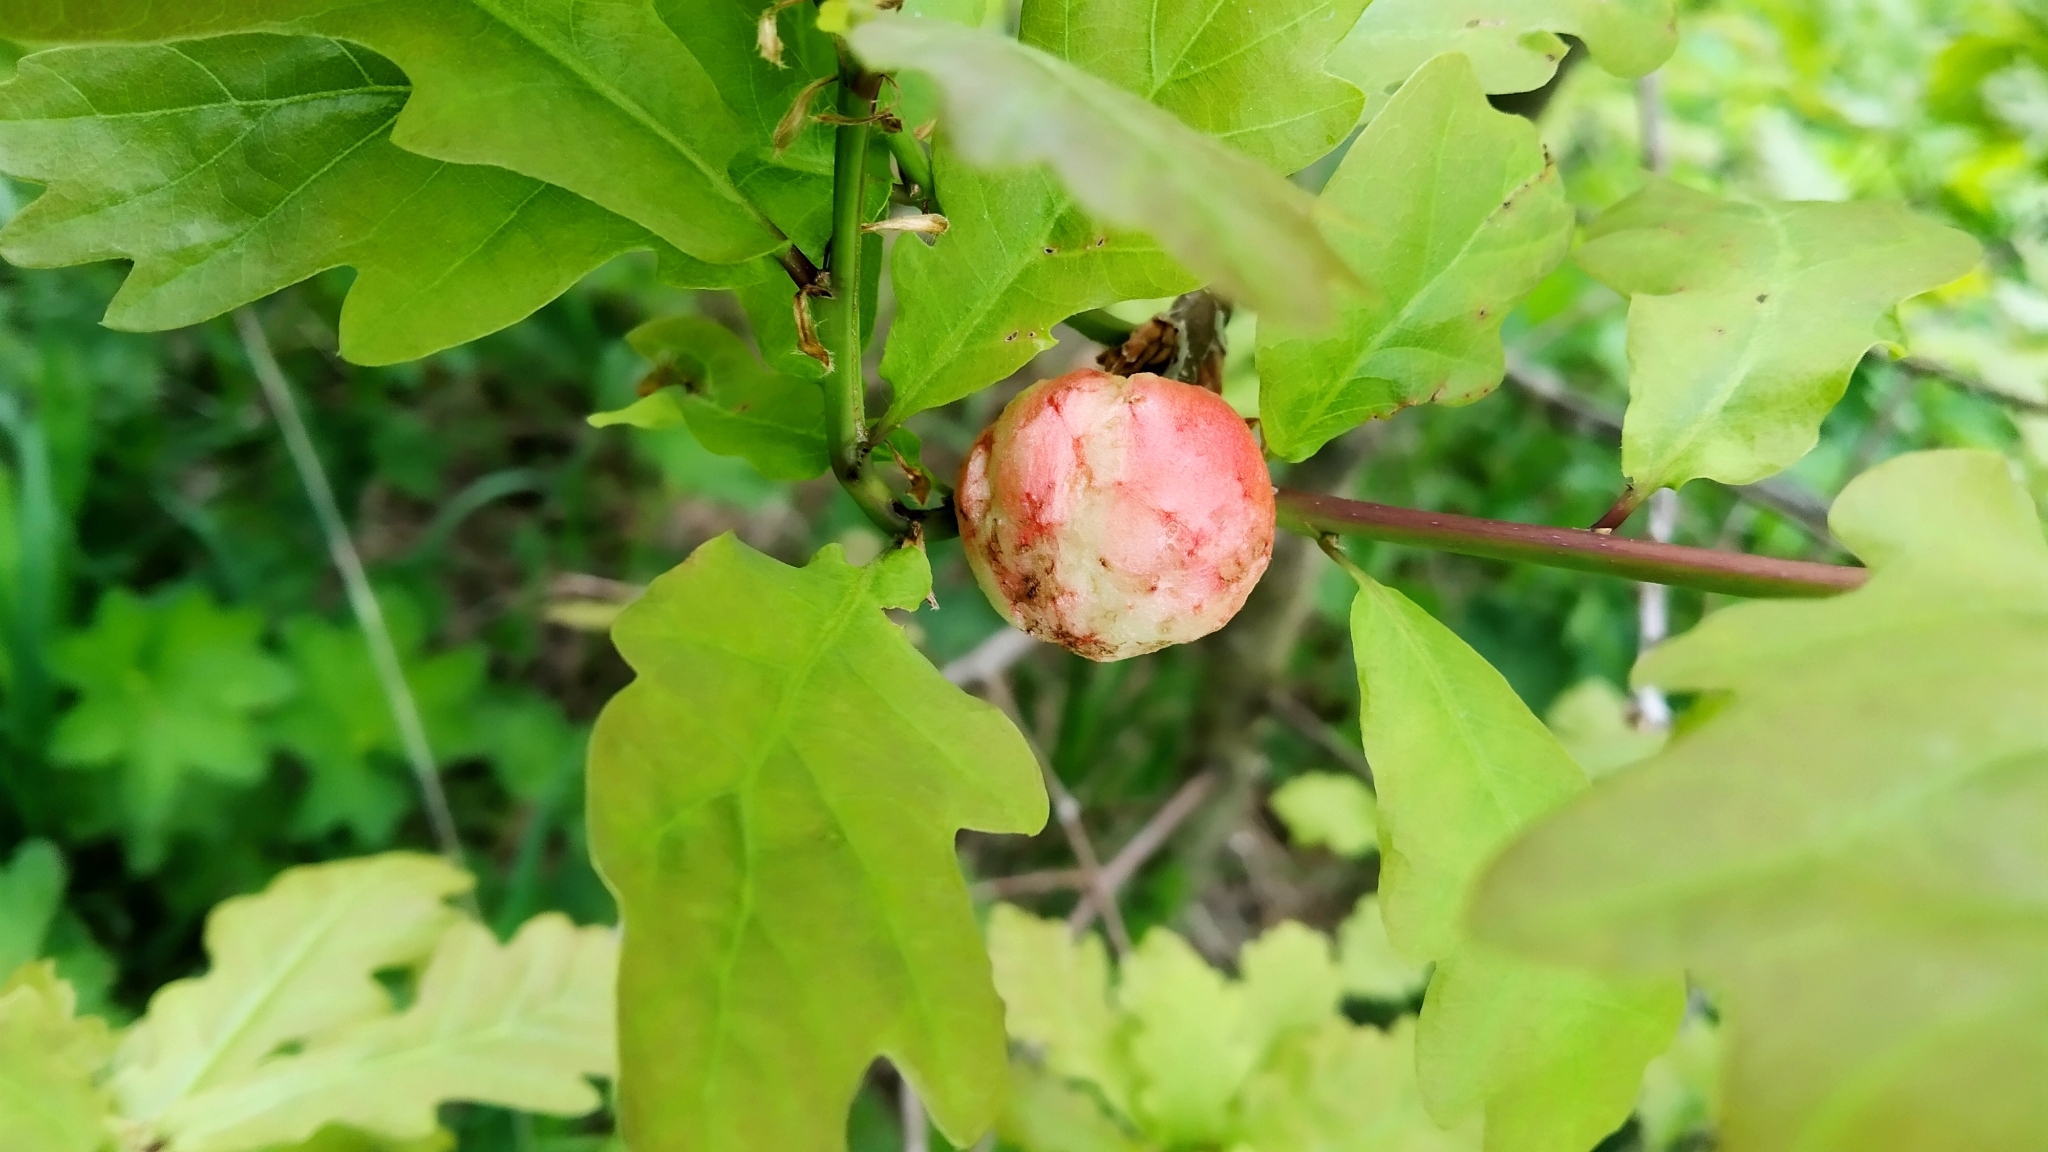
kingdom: Animalia
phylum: Arthropoda
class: Insecta
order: Hymenoptera
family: Cynipidae
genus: Biorhiza
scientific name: Biorhiza pallida
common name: Oak apple
